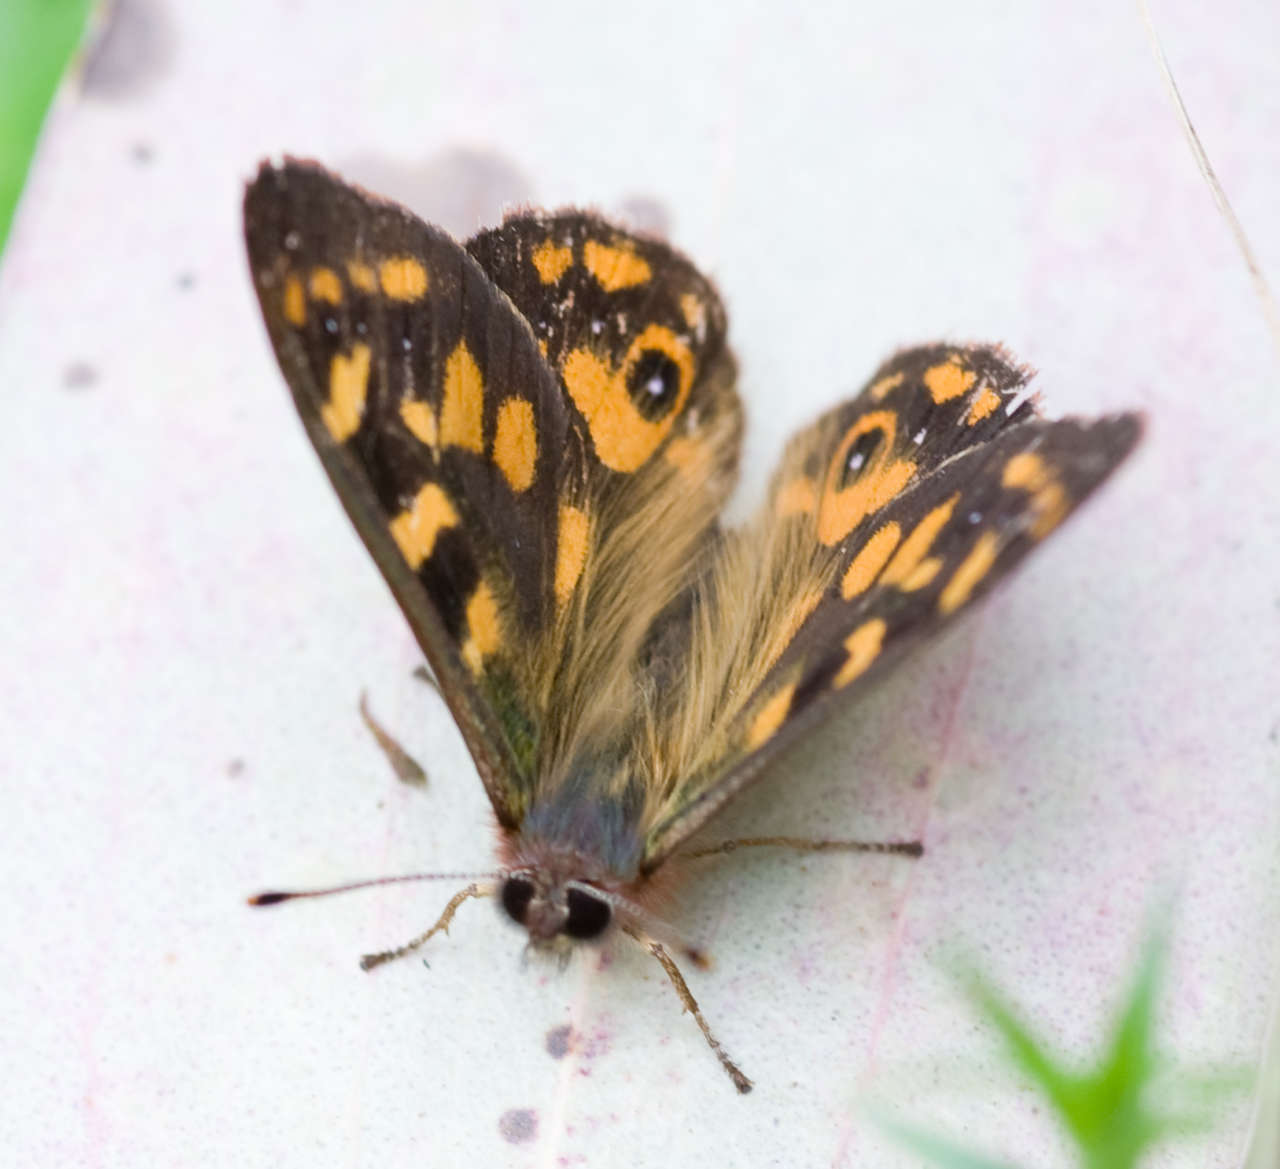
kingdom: Animalia
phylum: Arthropoda
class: Insecta
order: Lepidoptera
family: Nymphalidae
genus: Argynnina
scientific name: Argynnina cyrila
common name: Cyril's brown
